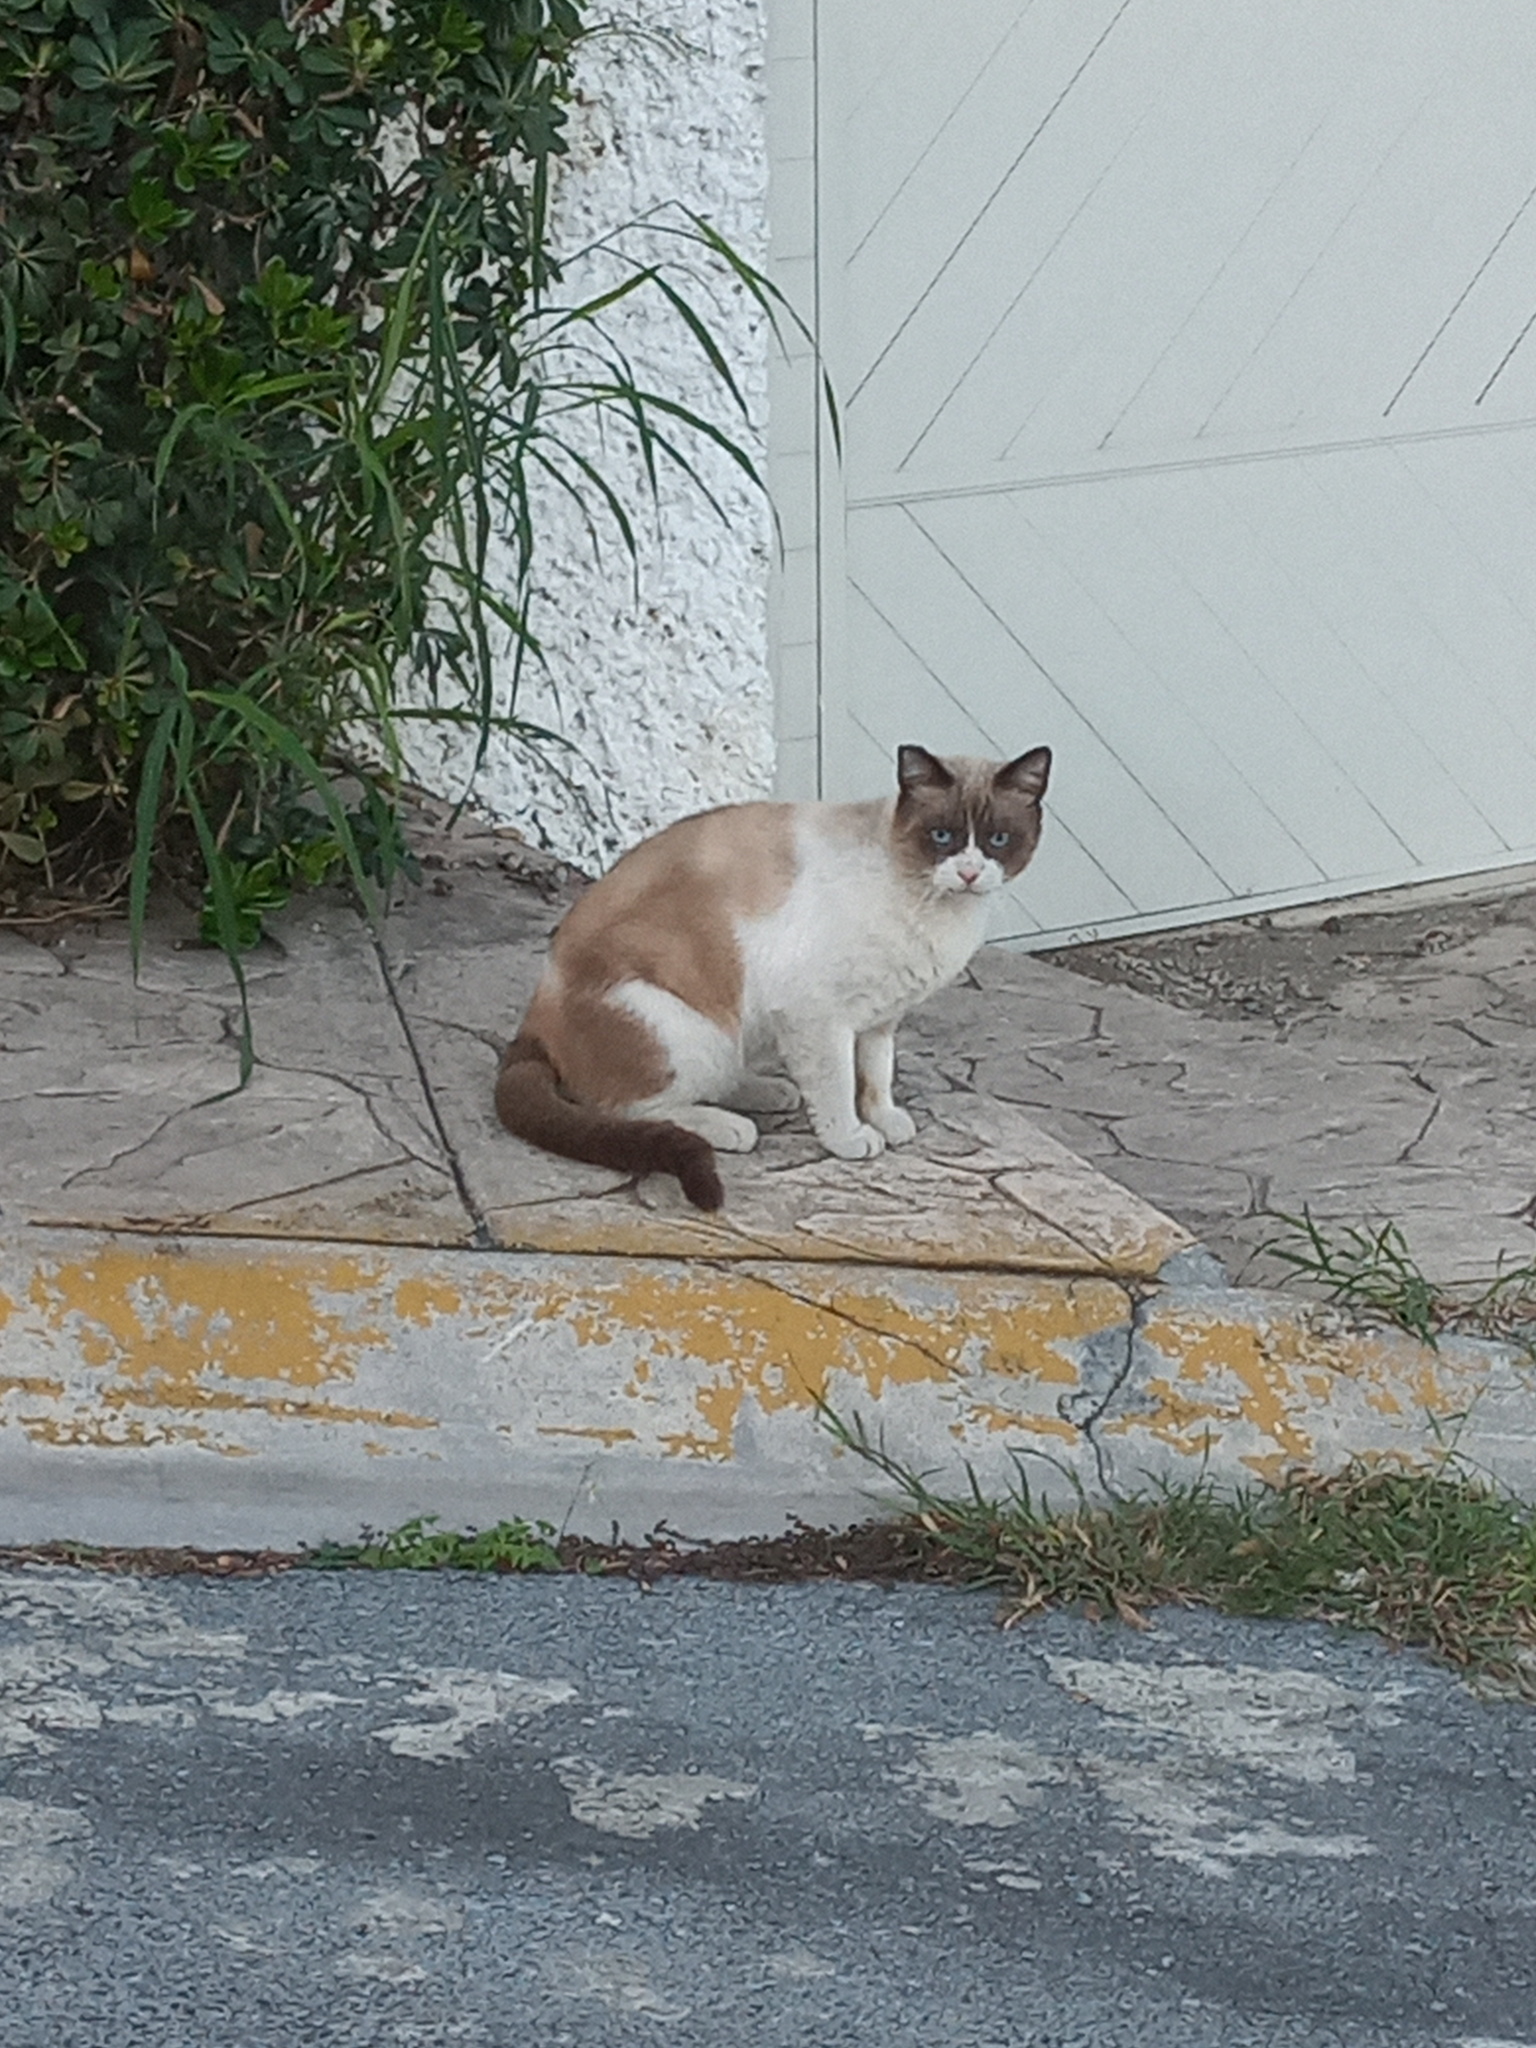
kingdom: Animalia
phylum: Chordata
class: Mammalia
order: Carnivora
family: Felidae
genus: Felis
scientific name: Felis catus
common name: Domestic cat
